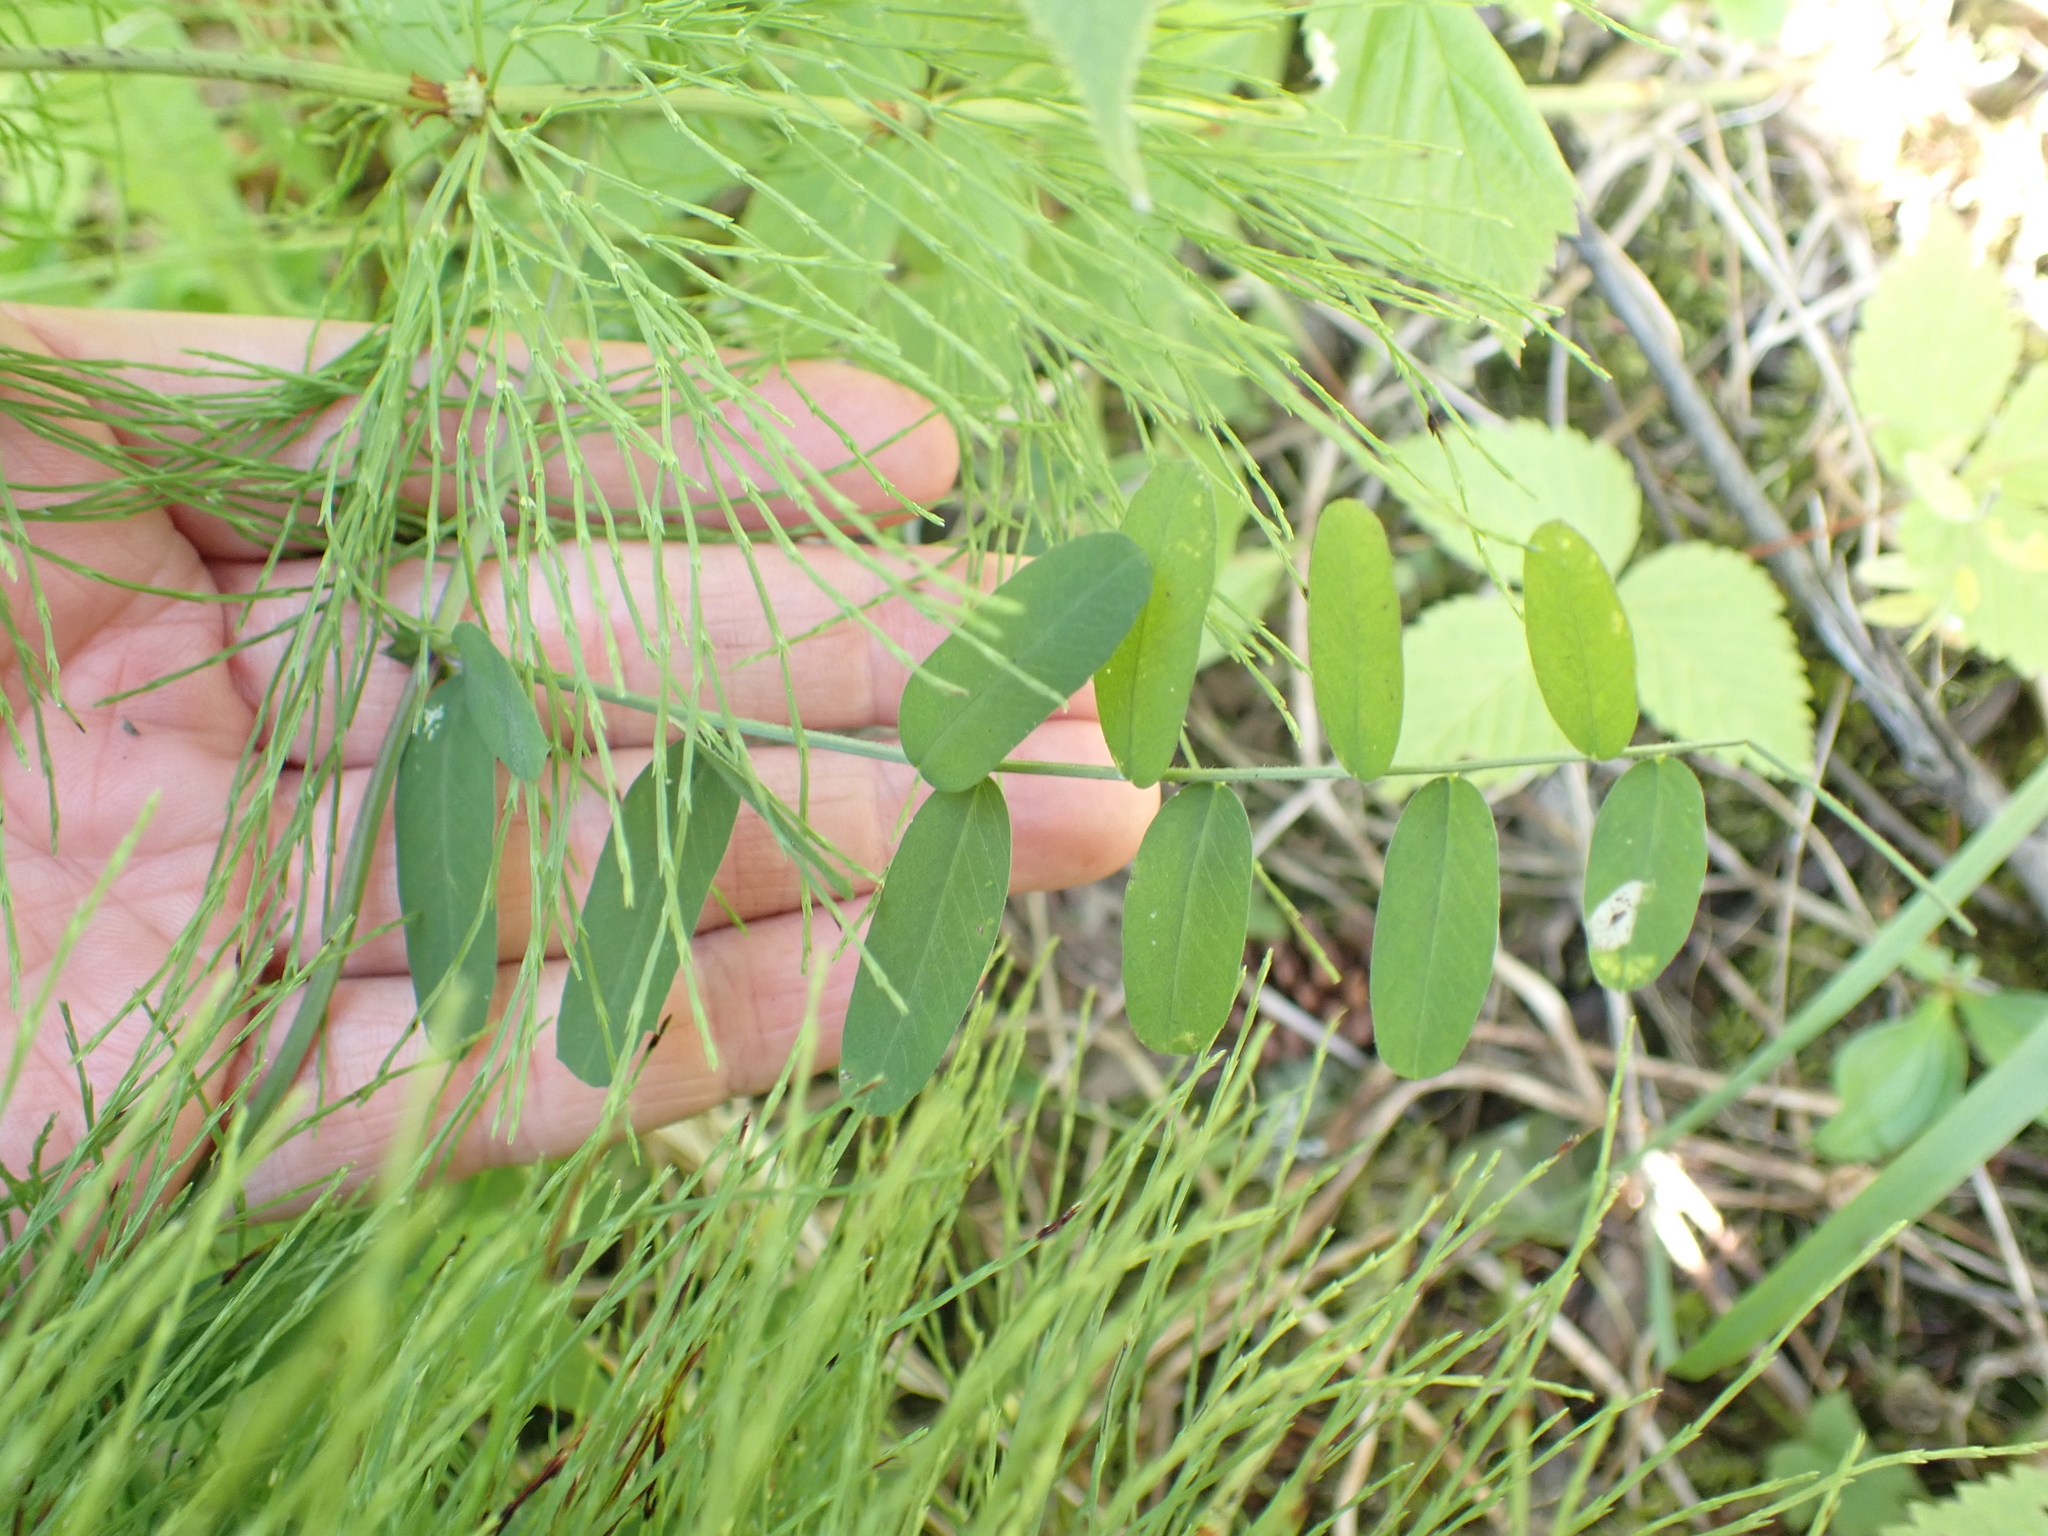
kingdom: Plantae
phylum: Tracheophyta
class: Magnoliopsida
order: Fabales
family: Fabaceae
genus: Vicia
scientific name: Vicia americana
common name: American vetch
